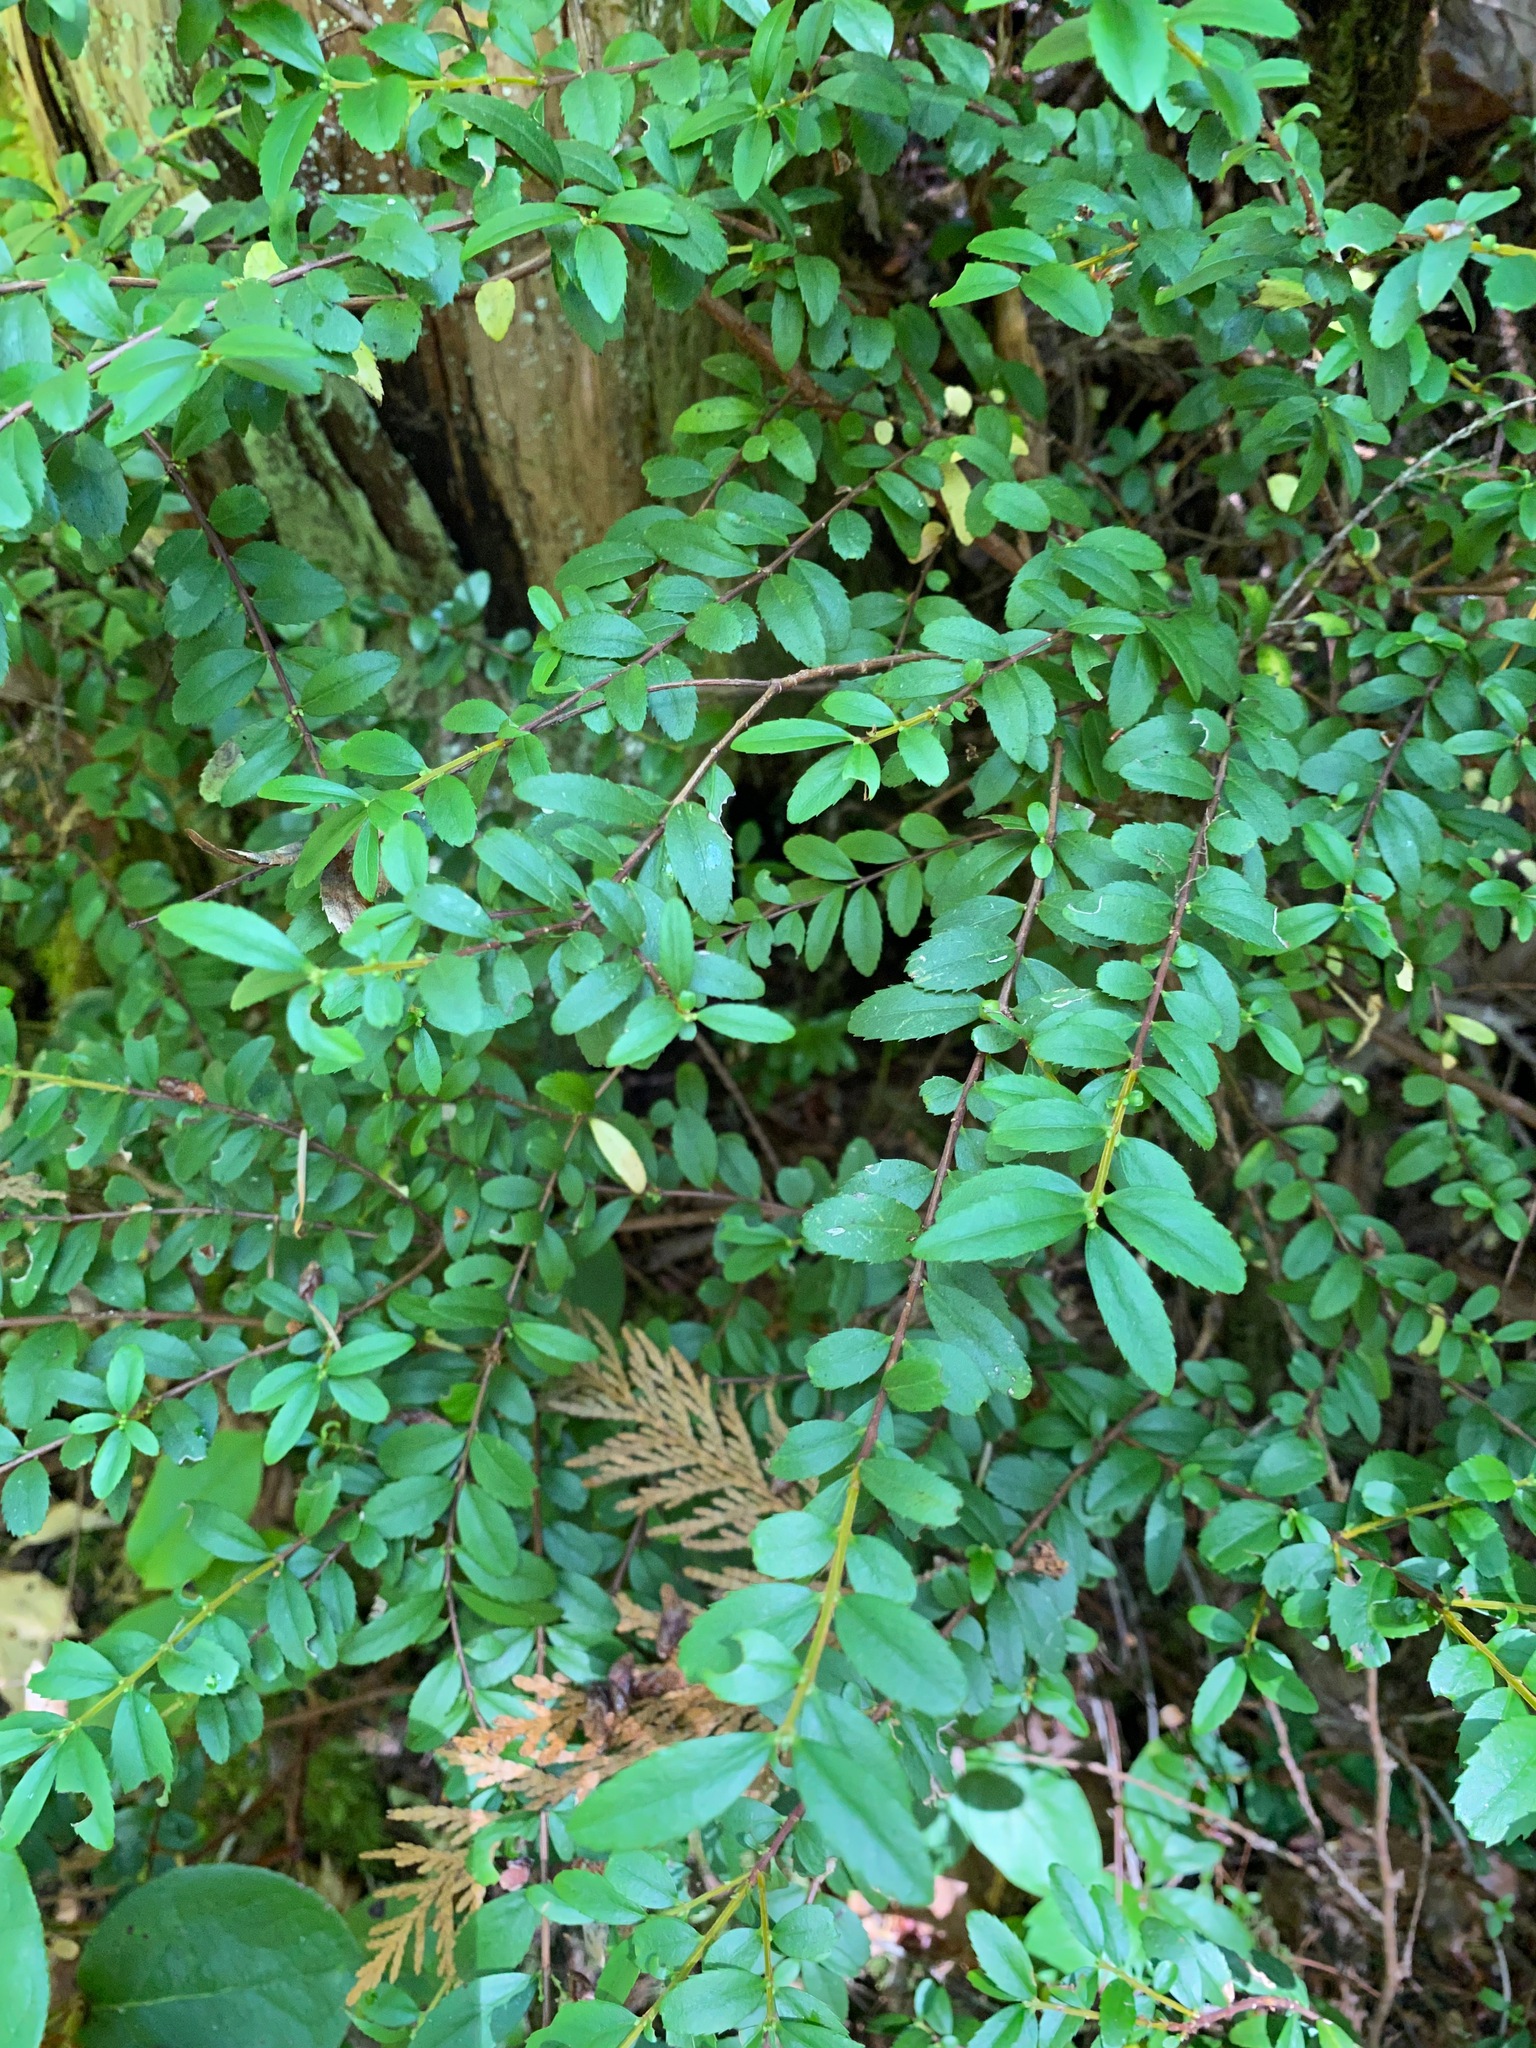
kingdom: Plantae
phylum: Tracheophyta
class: Magnoliopsida
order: Celastrales
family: Celastraceae
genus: Paxistima
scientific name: Paxistima myrsinites
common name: Mountain-lover
